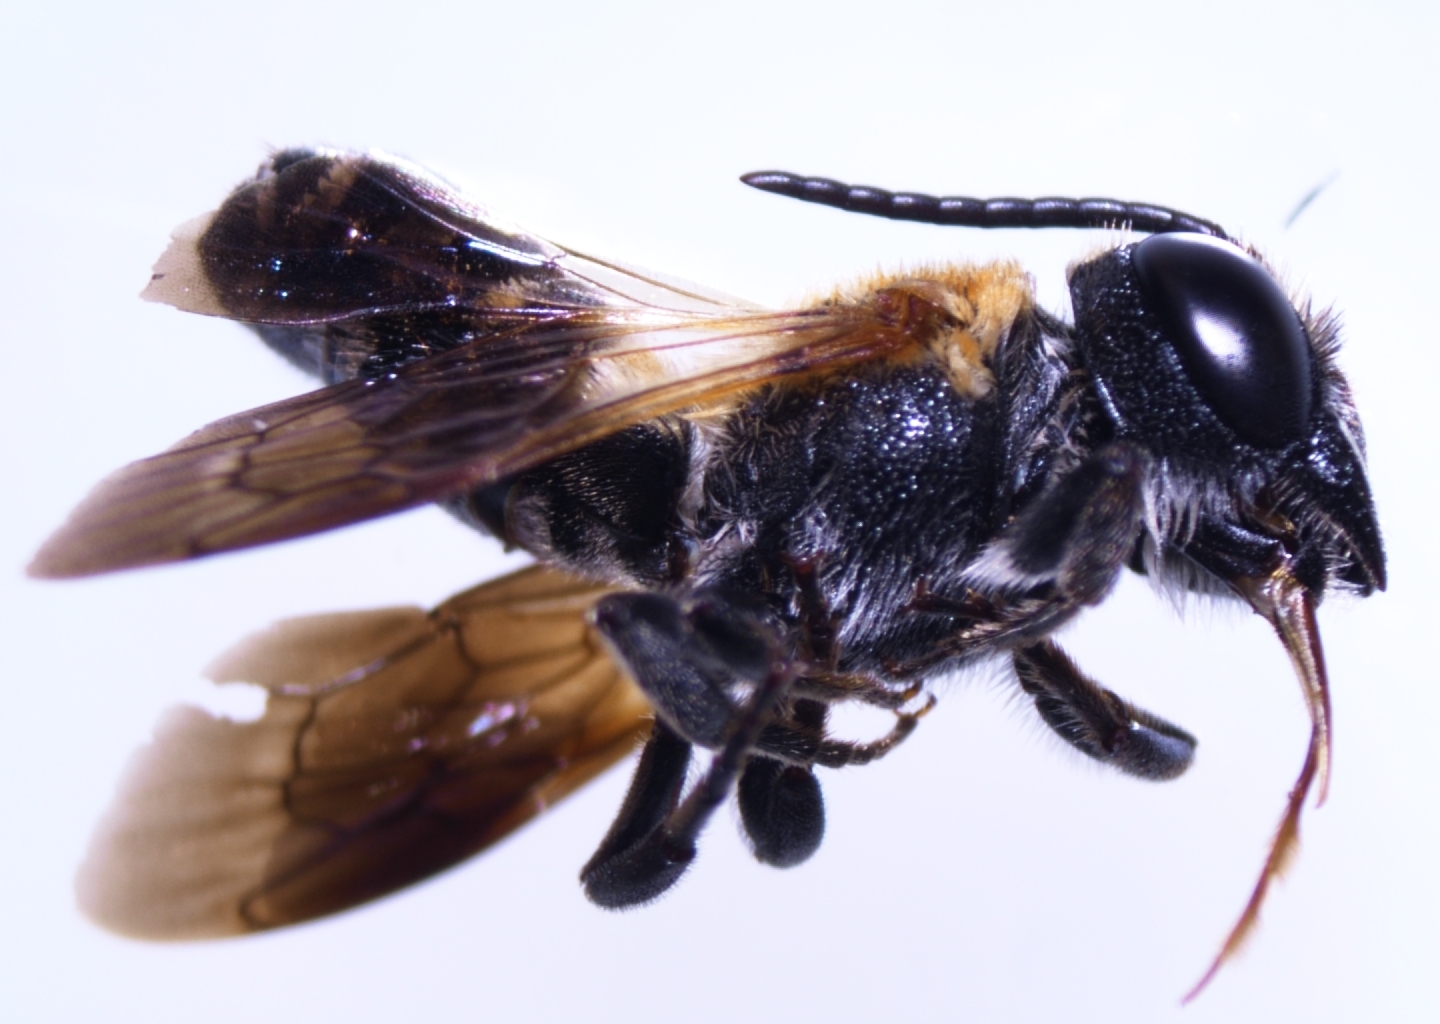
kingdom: Animalia
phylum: Arthropoda
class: Insecta
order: Hymenoptera
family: Megachilidae
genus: Megachile
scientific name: Megachile umbripennis
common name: Shadow-winged resin bee
